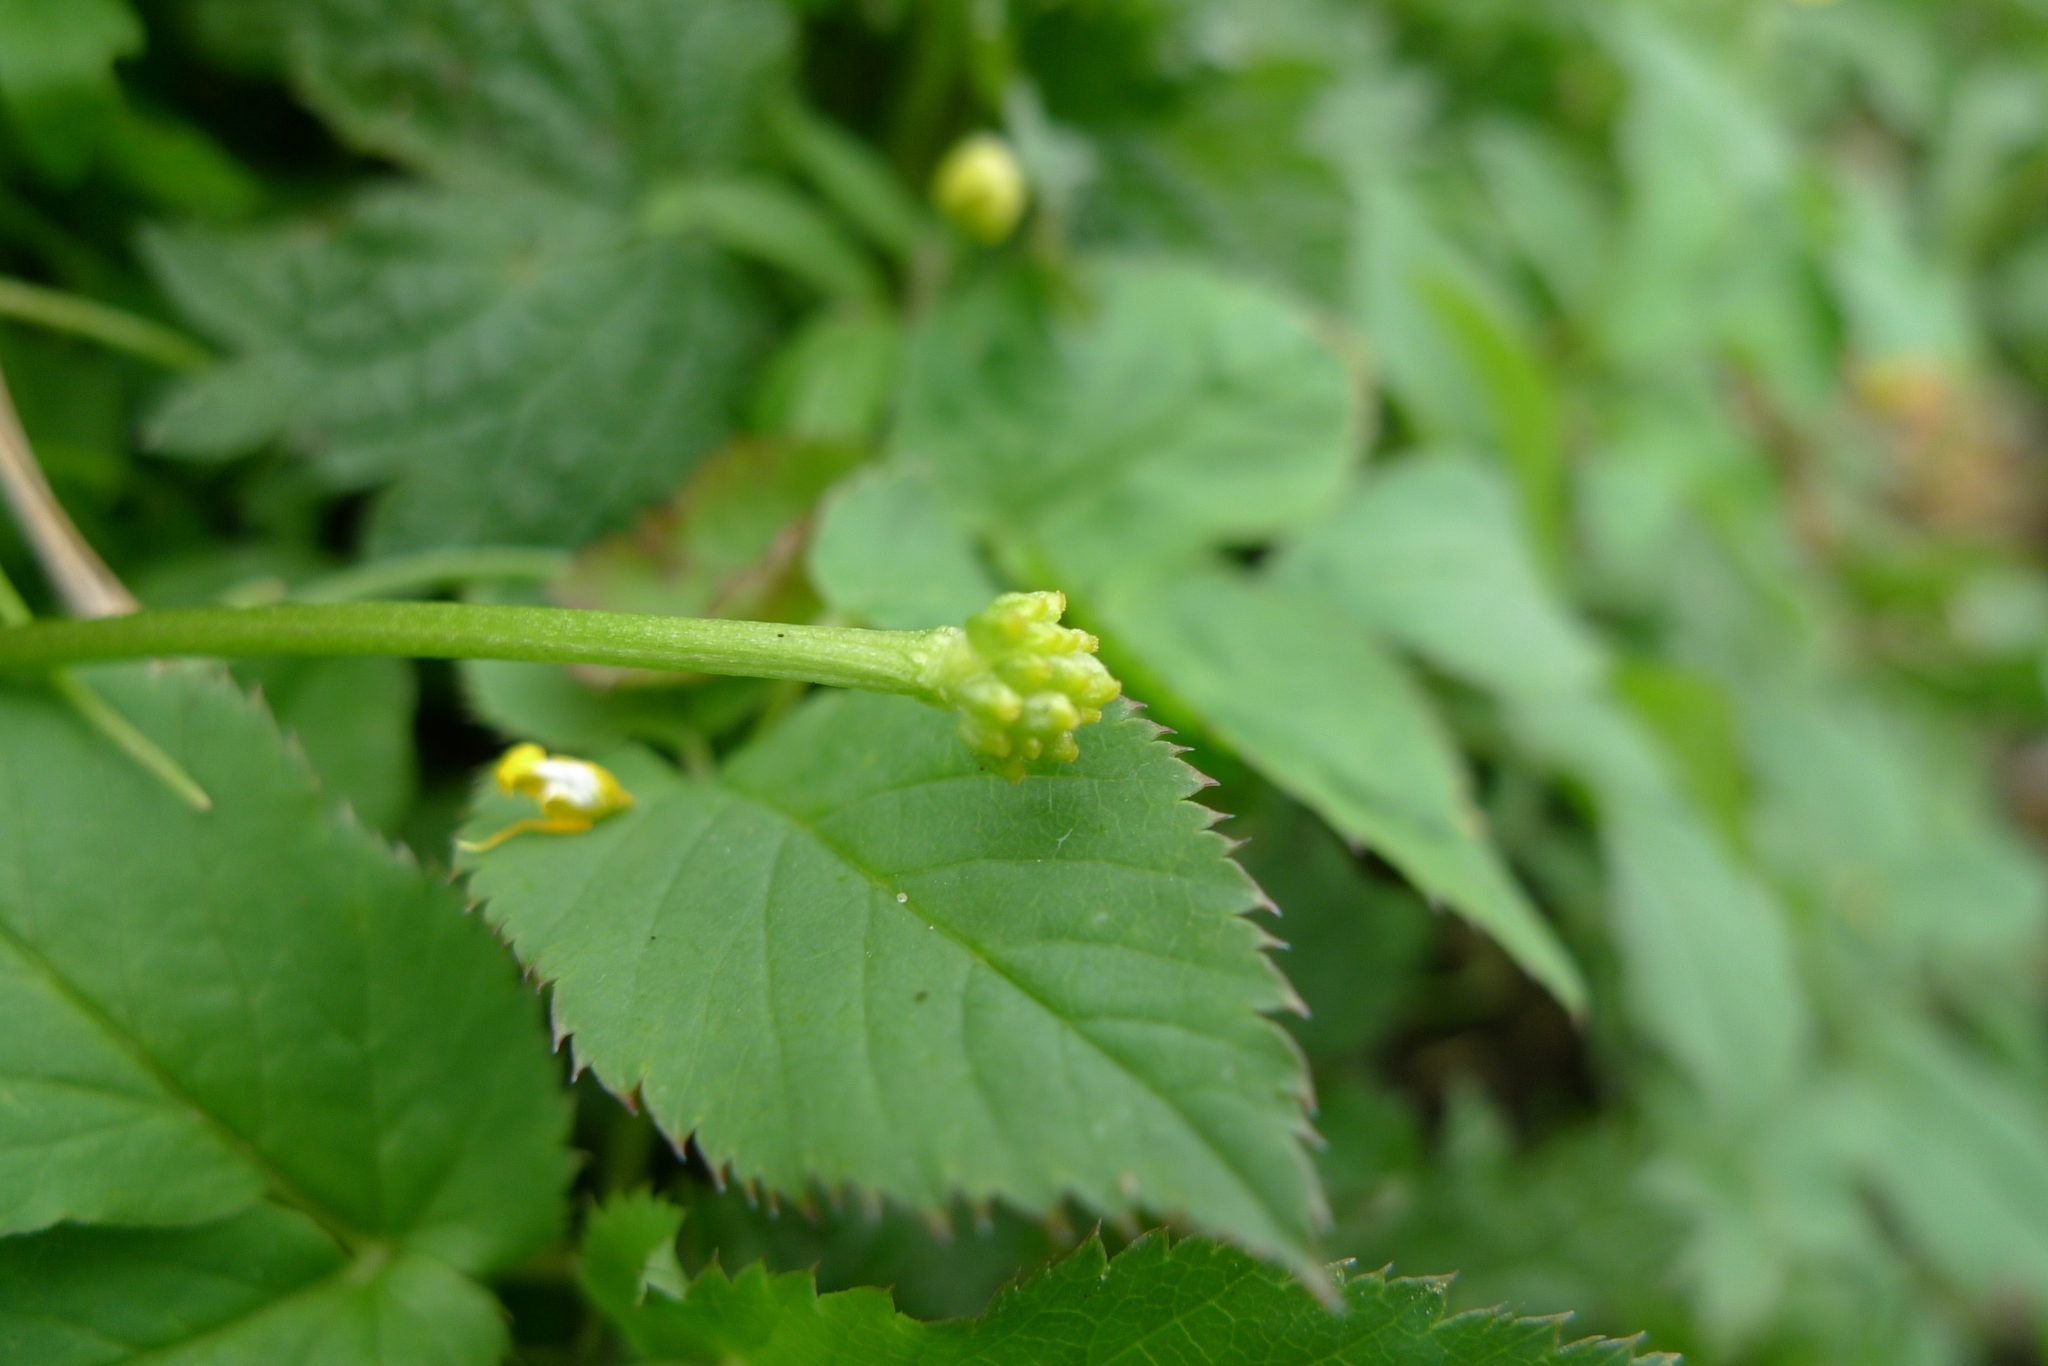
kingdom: Plantae
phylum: Tracheophyta
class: Magnoliopsida
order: Ranunculales
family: Ranunculaceae
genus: Ficaria
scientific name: Ficaria verna
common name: Lesser celandine
